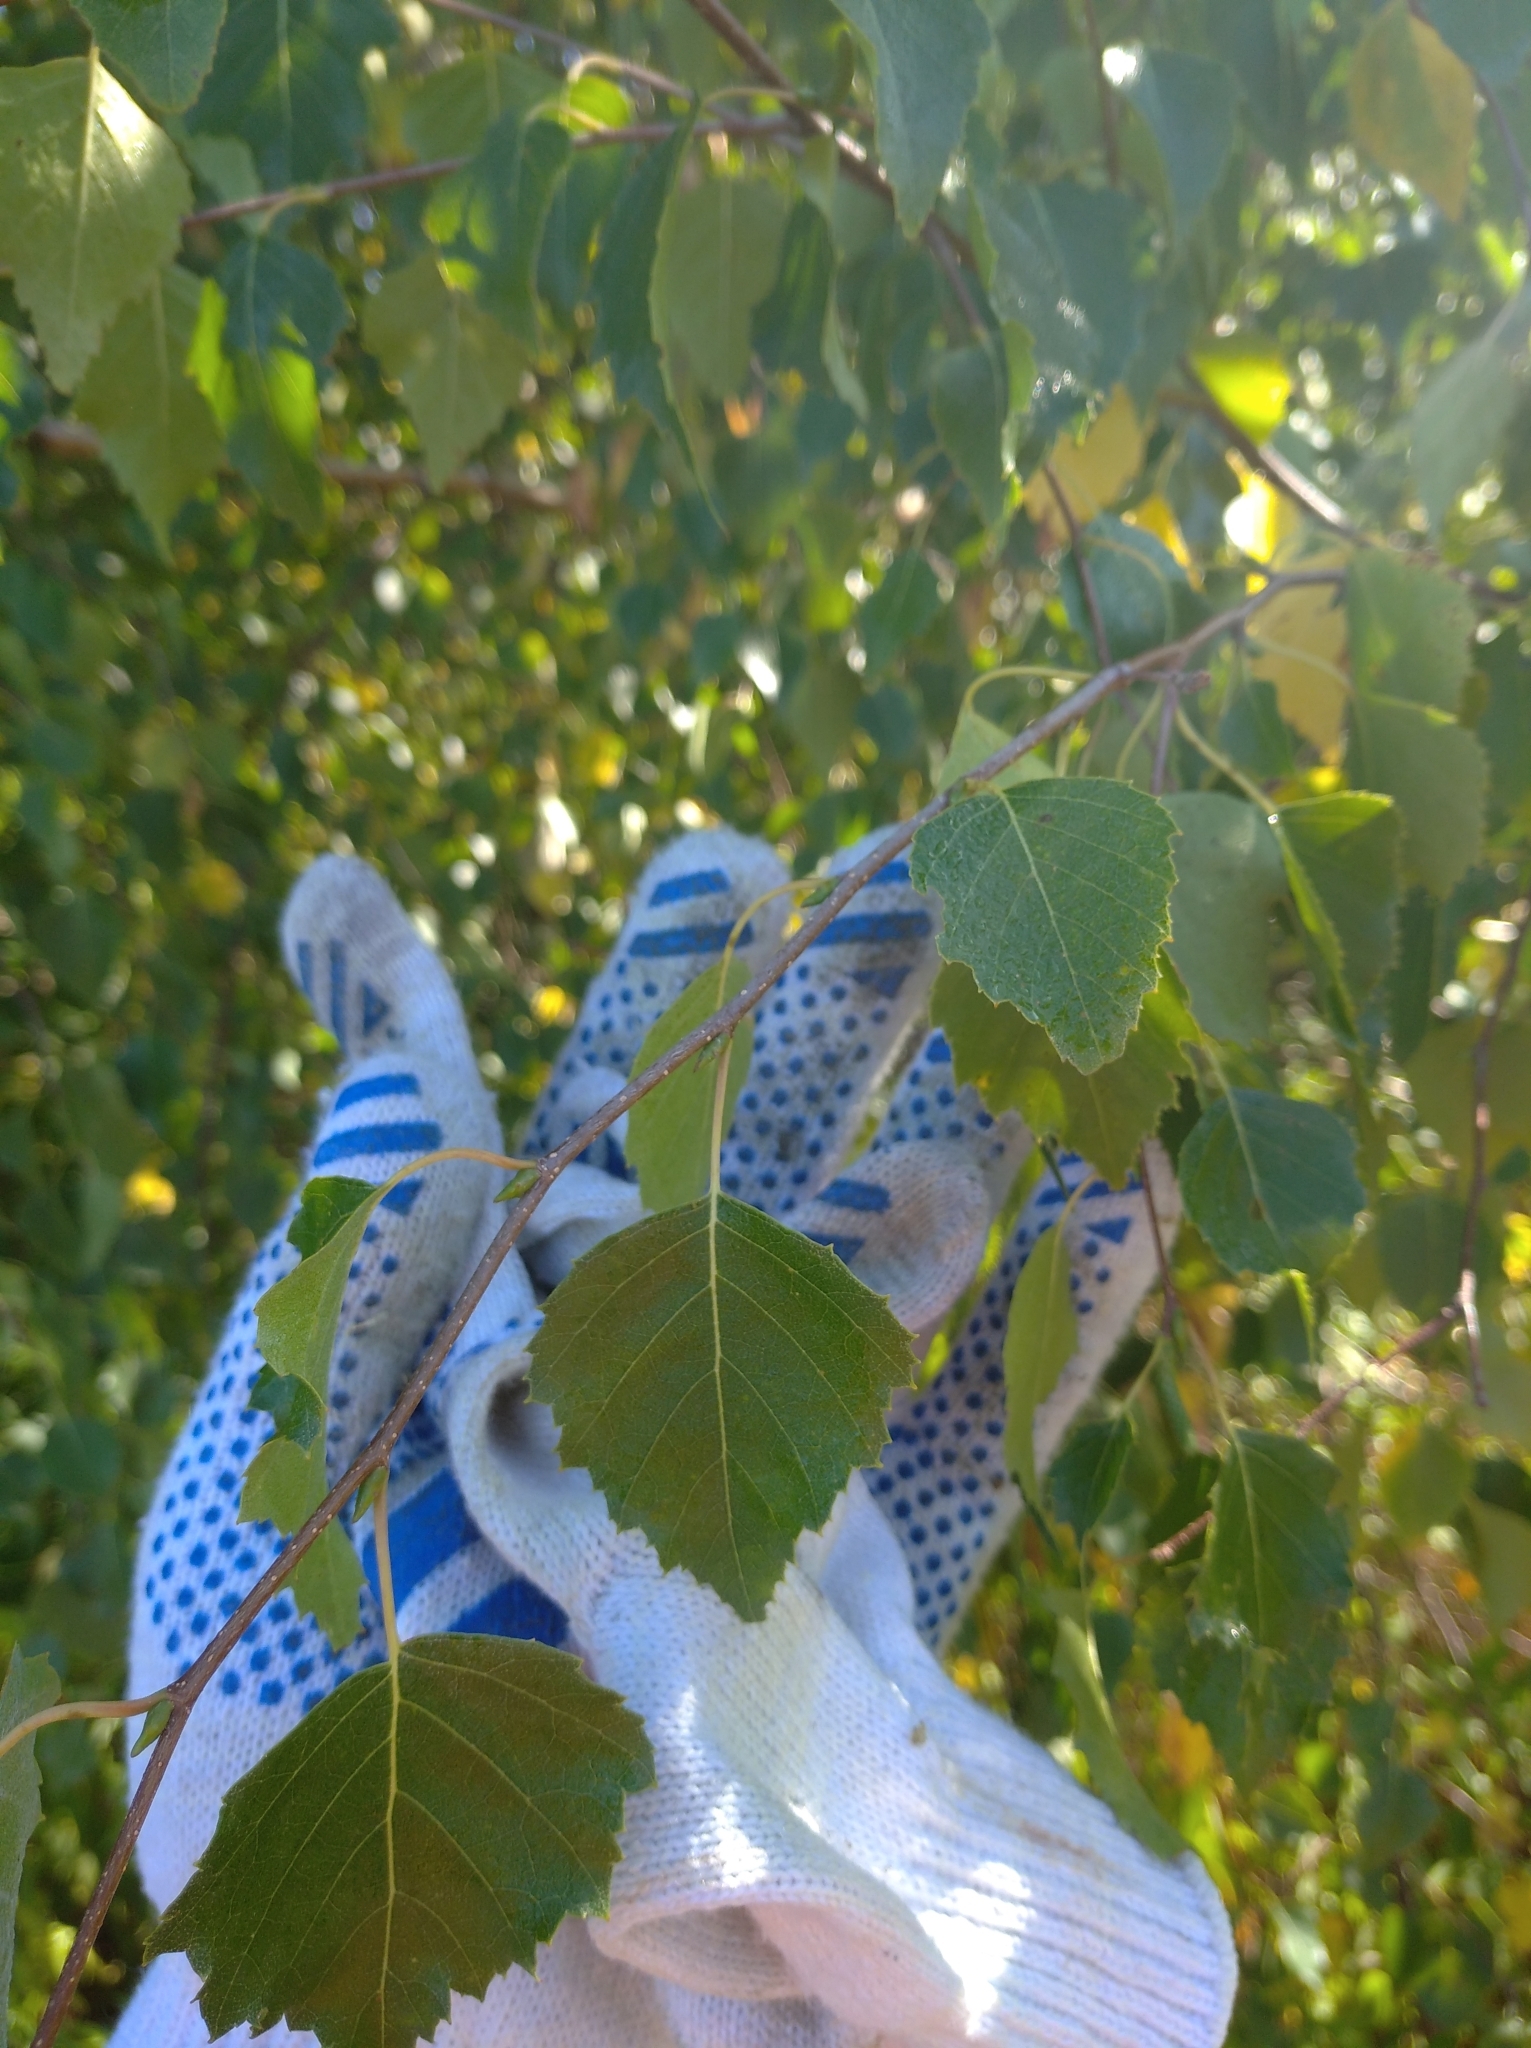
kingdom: Plantae
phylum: Tracheophyta
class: Magnoliopsida
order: Fagales
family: Betulaceae
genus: Betula
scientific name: Betula pendula
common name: Silver birch
